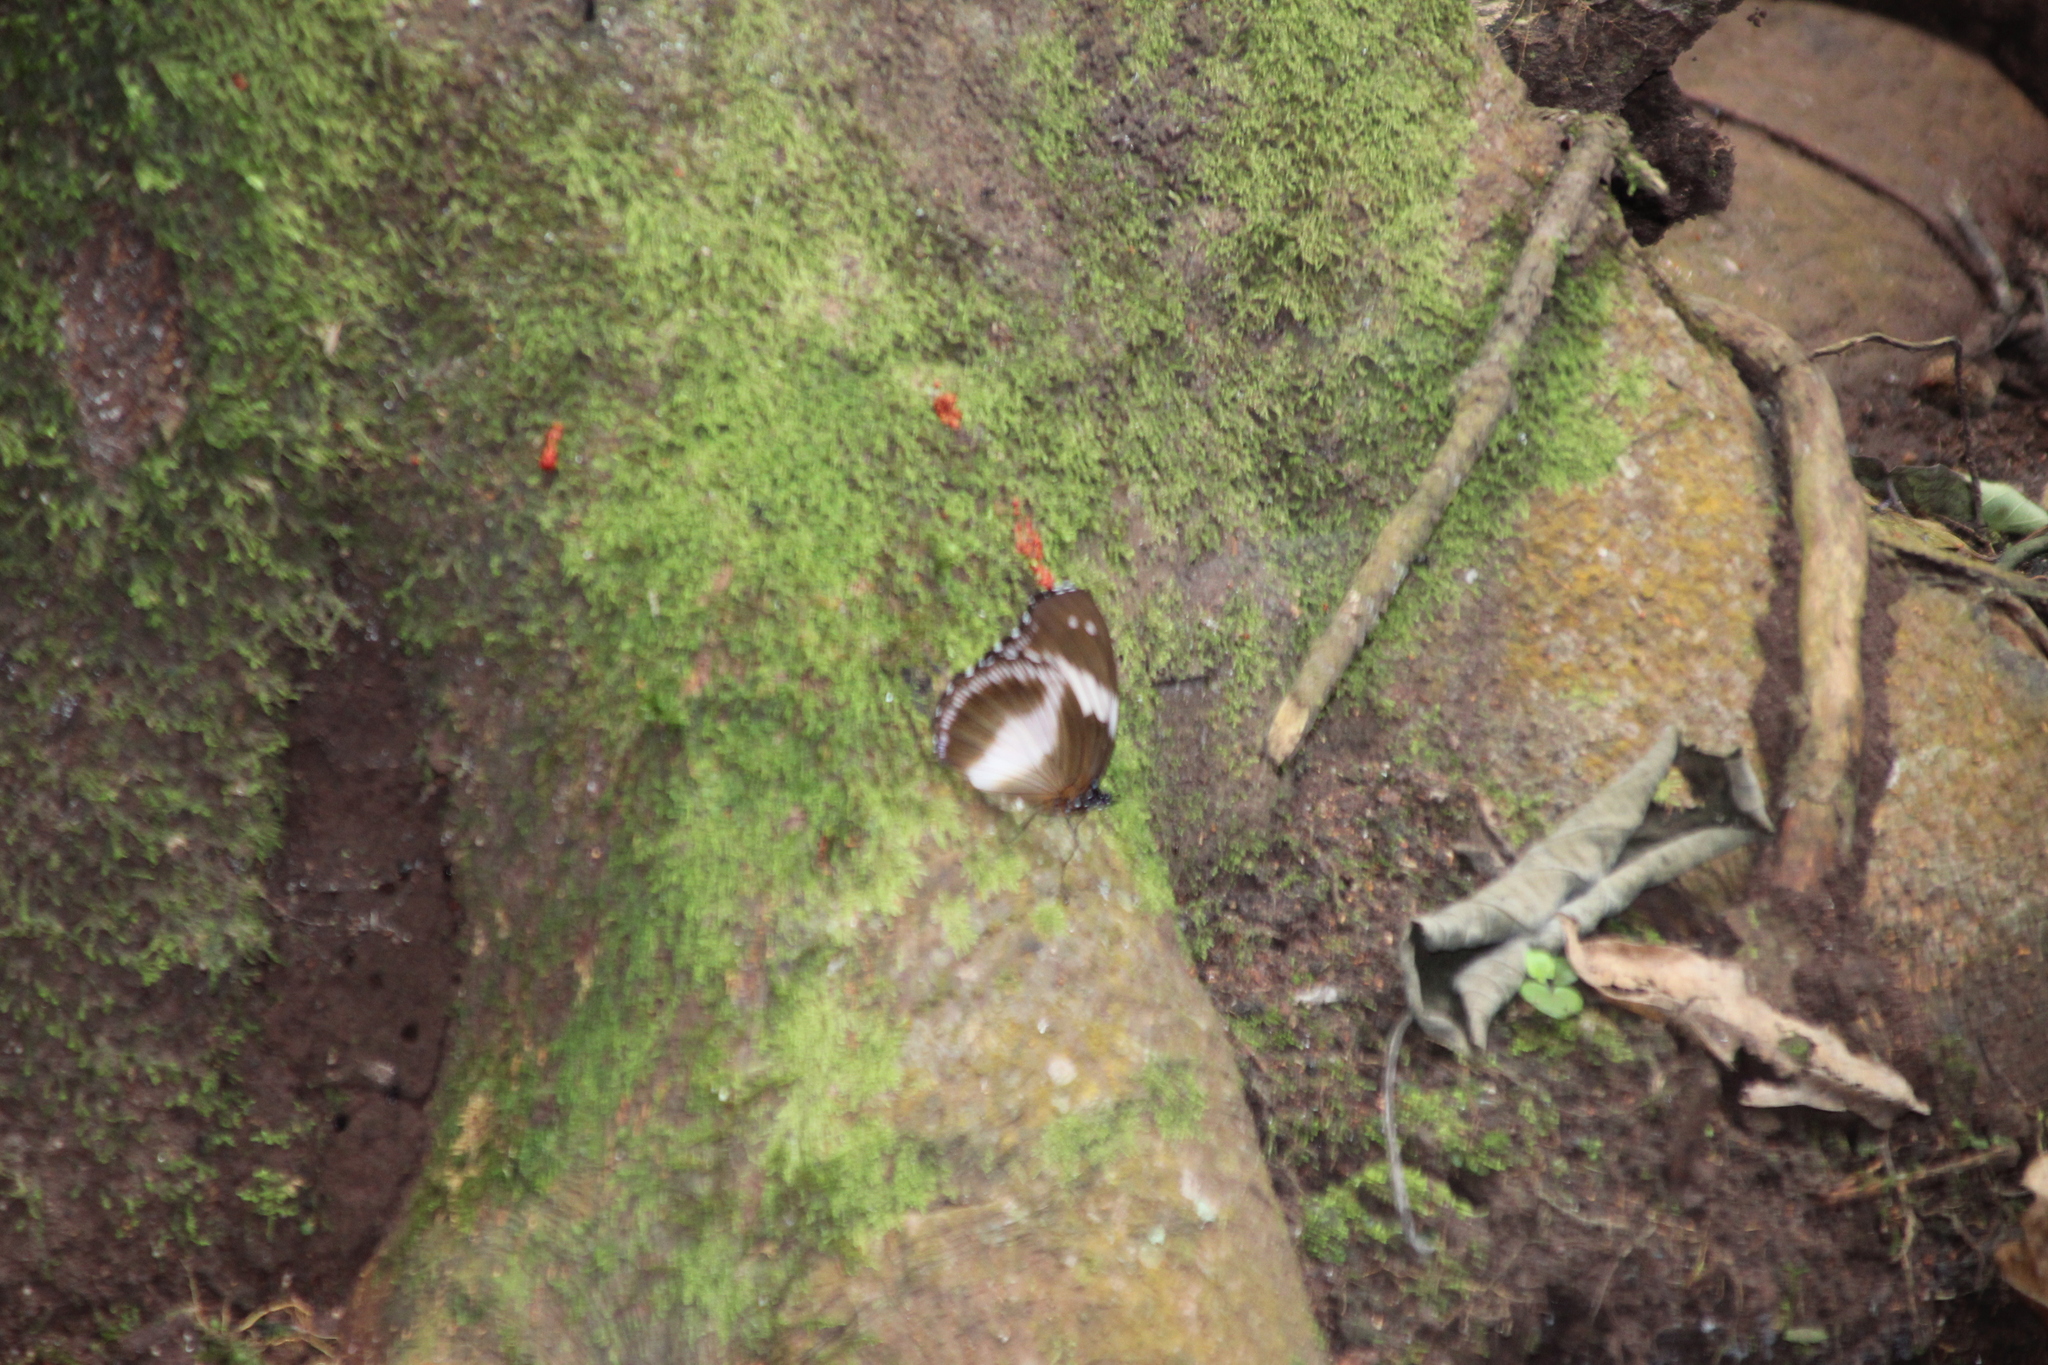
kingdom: Animalia
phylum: Arthropoda
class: Insecta
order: Lepidoptera
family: Nymphalidae
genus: Hypolimnas
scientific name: Hypolimnas salmacis
